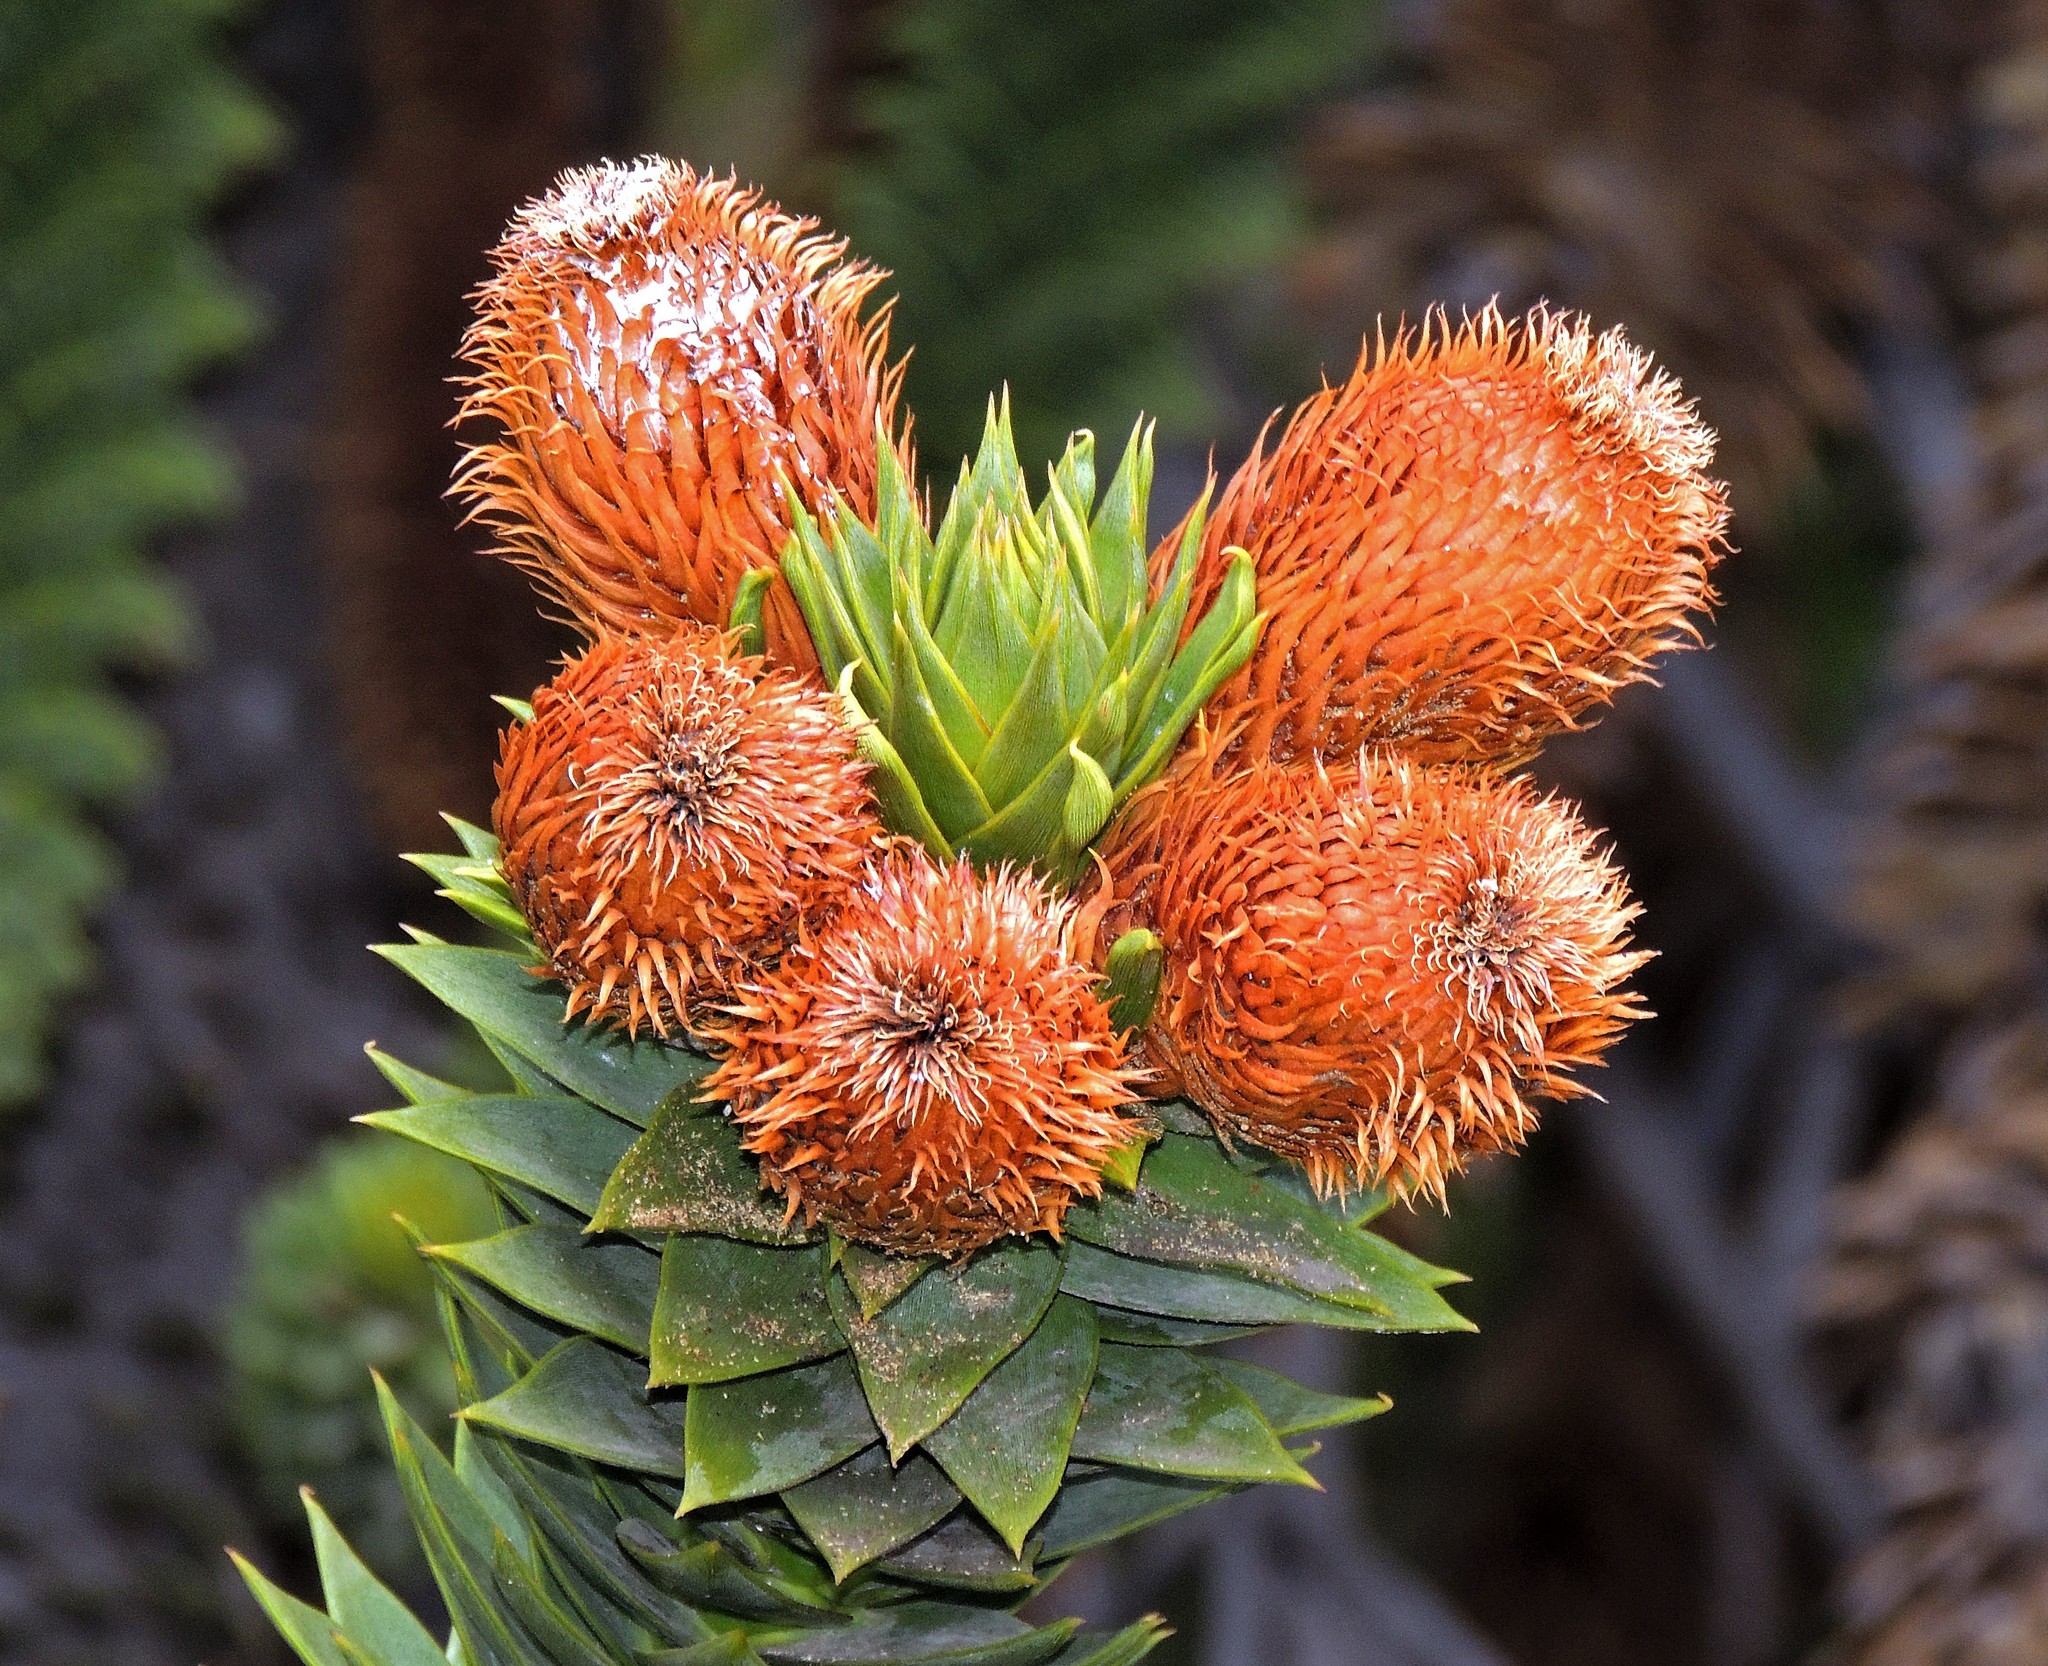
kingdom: Plantae
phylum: Tracheophyta
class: Pinopsida
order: Pinales
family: Araucariaceae
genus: Araucaria
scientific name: Araucaria araucana
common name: Monkey-puzzle
